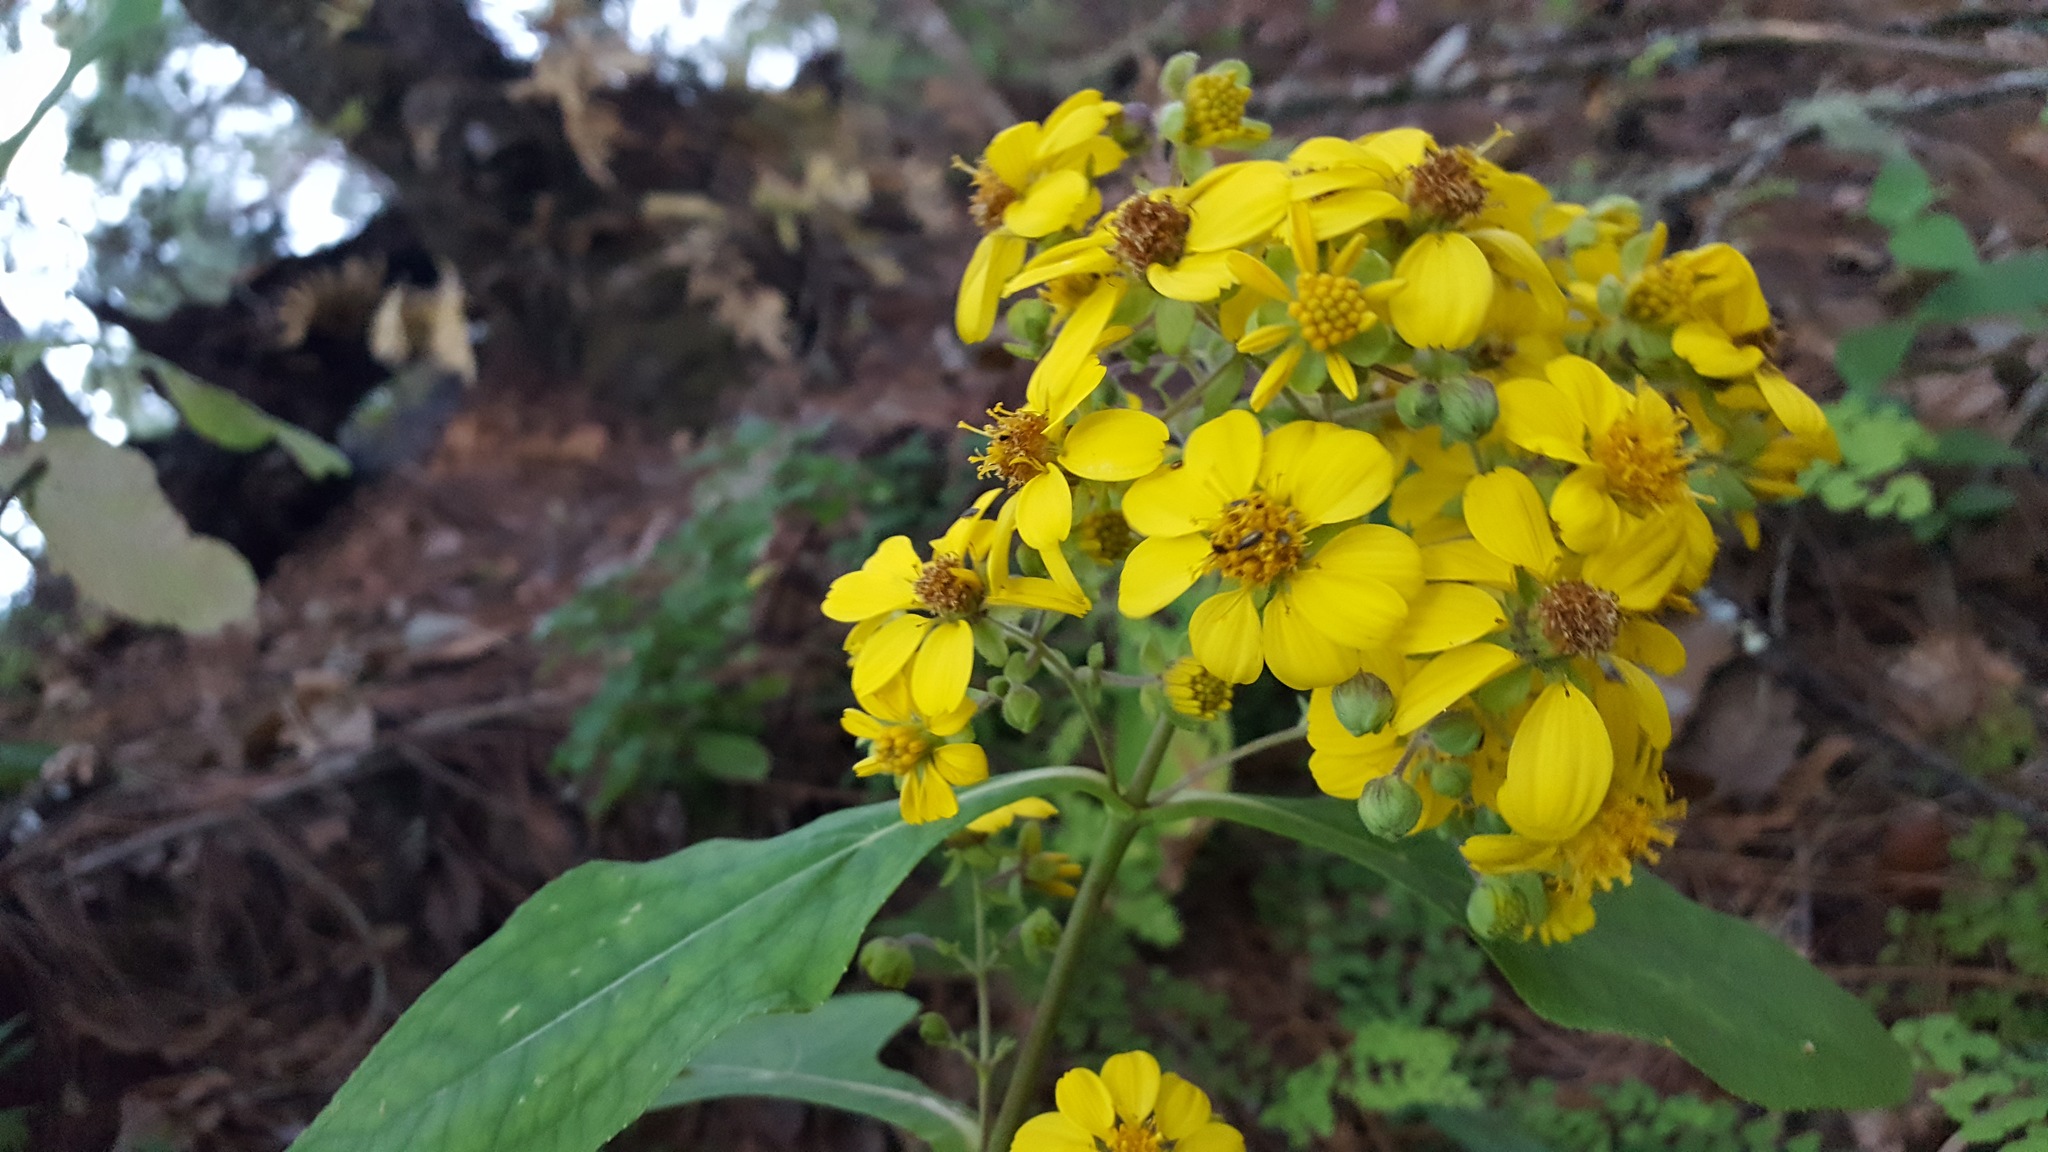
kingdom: Plantae
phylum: Tracheophyta
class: Magnoliopsida
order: Asterales
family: Asteraceae
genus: Rumfordia
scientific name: Rumfordia floribunda
